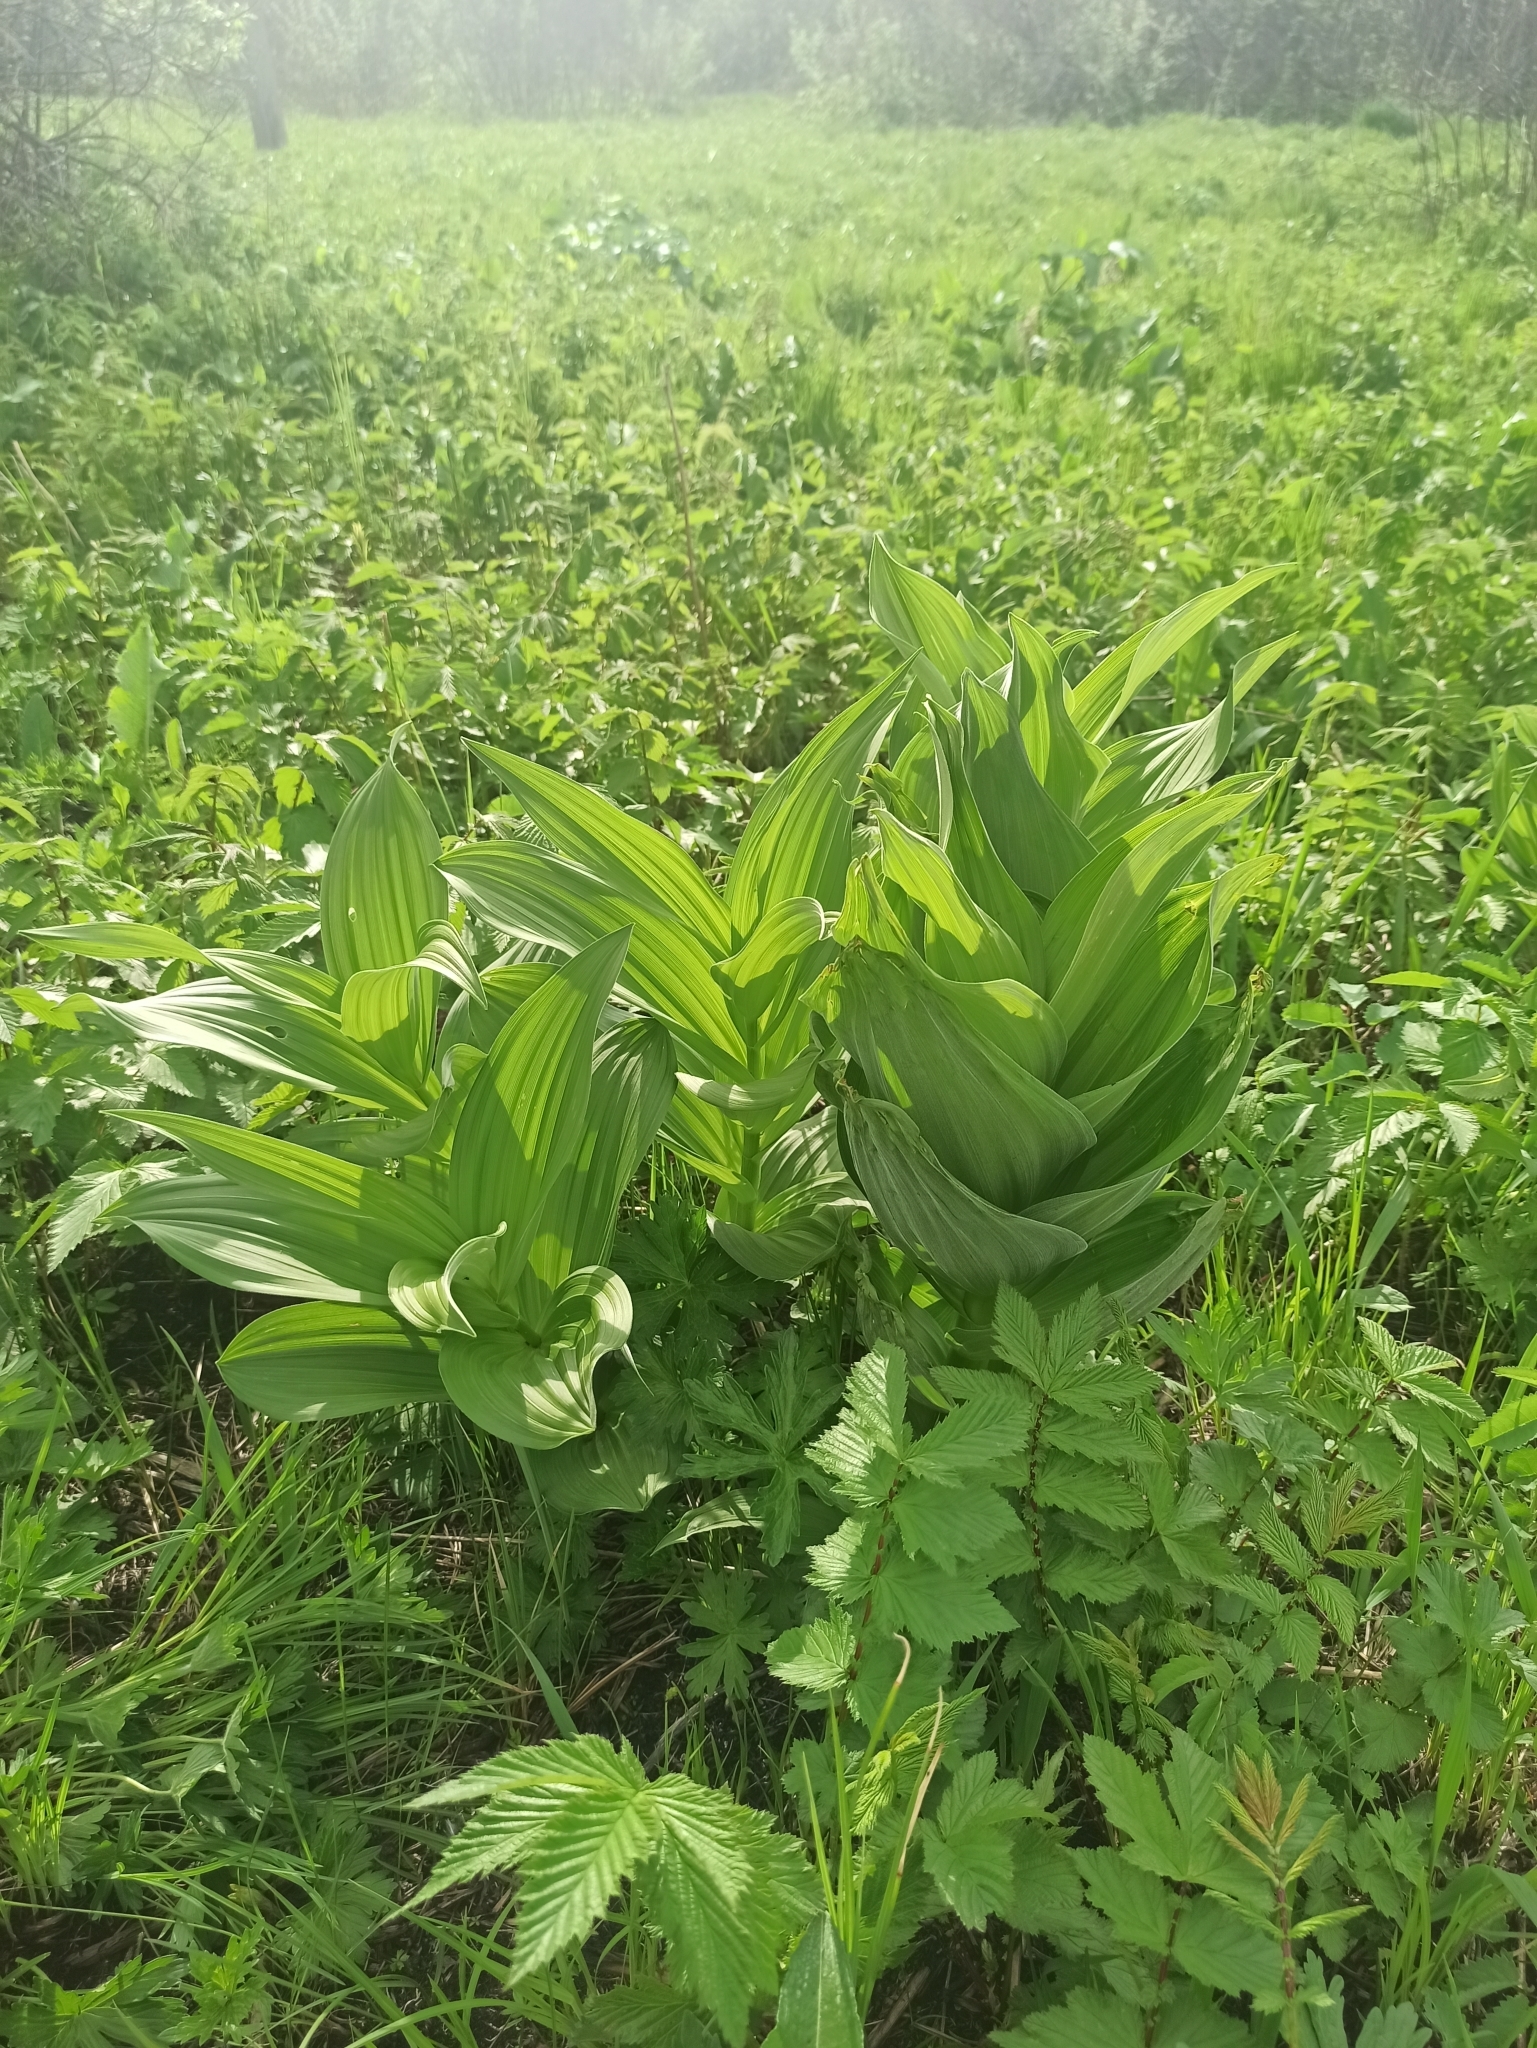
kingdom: Plantae
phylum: Tracheophyta
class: Liliopsida
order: Liliales
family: Melanthiaceae
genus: Veratrum
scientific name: Veratrum lobelianum
